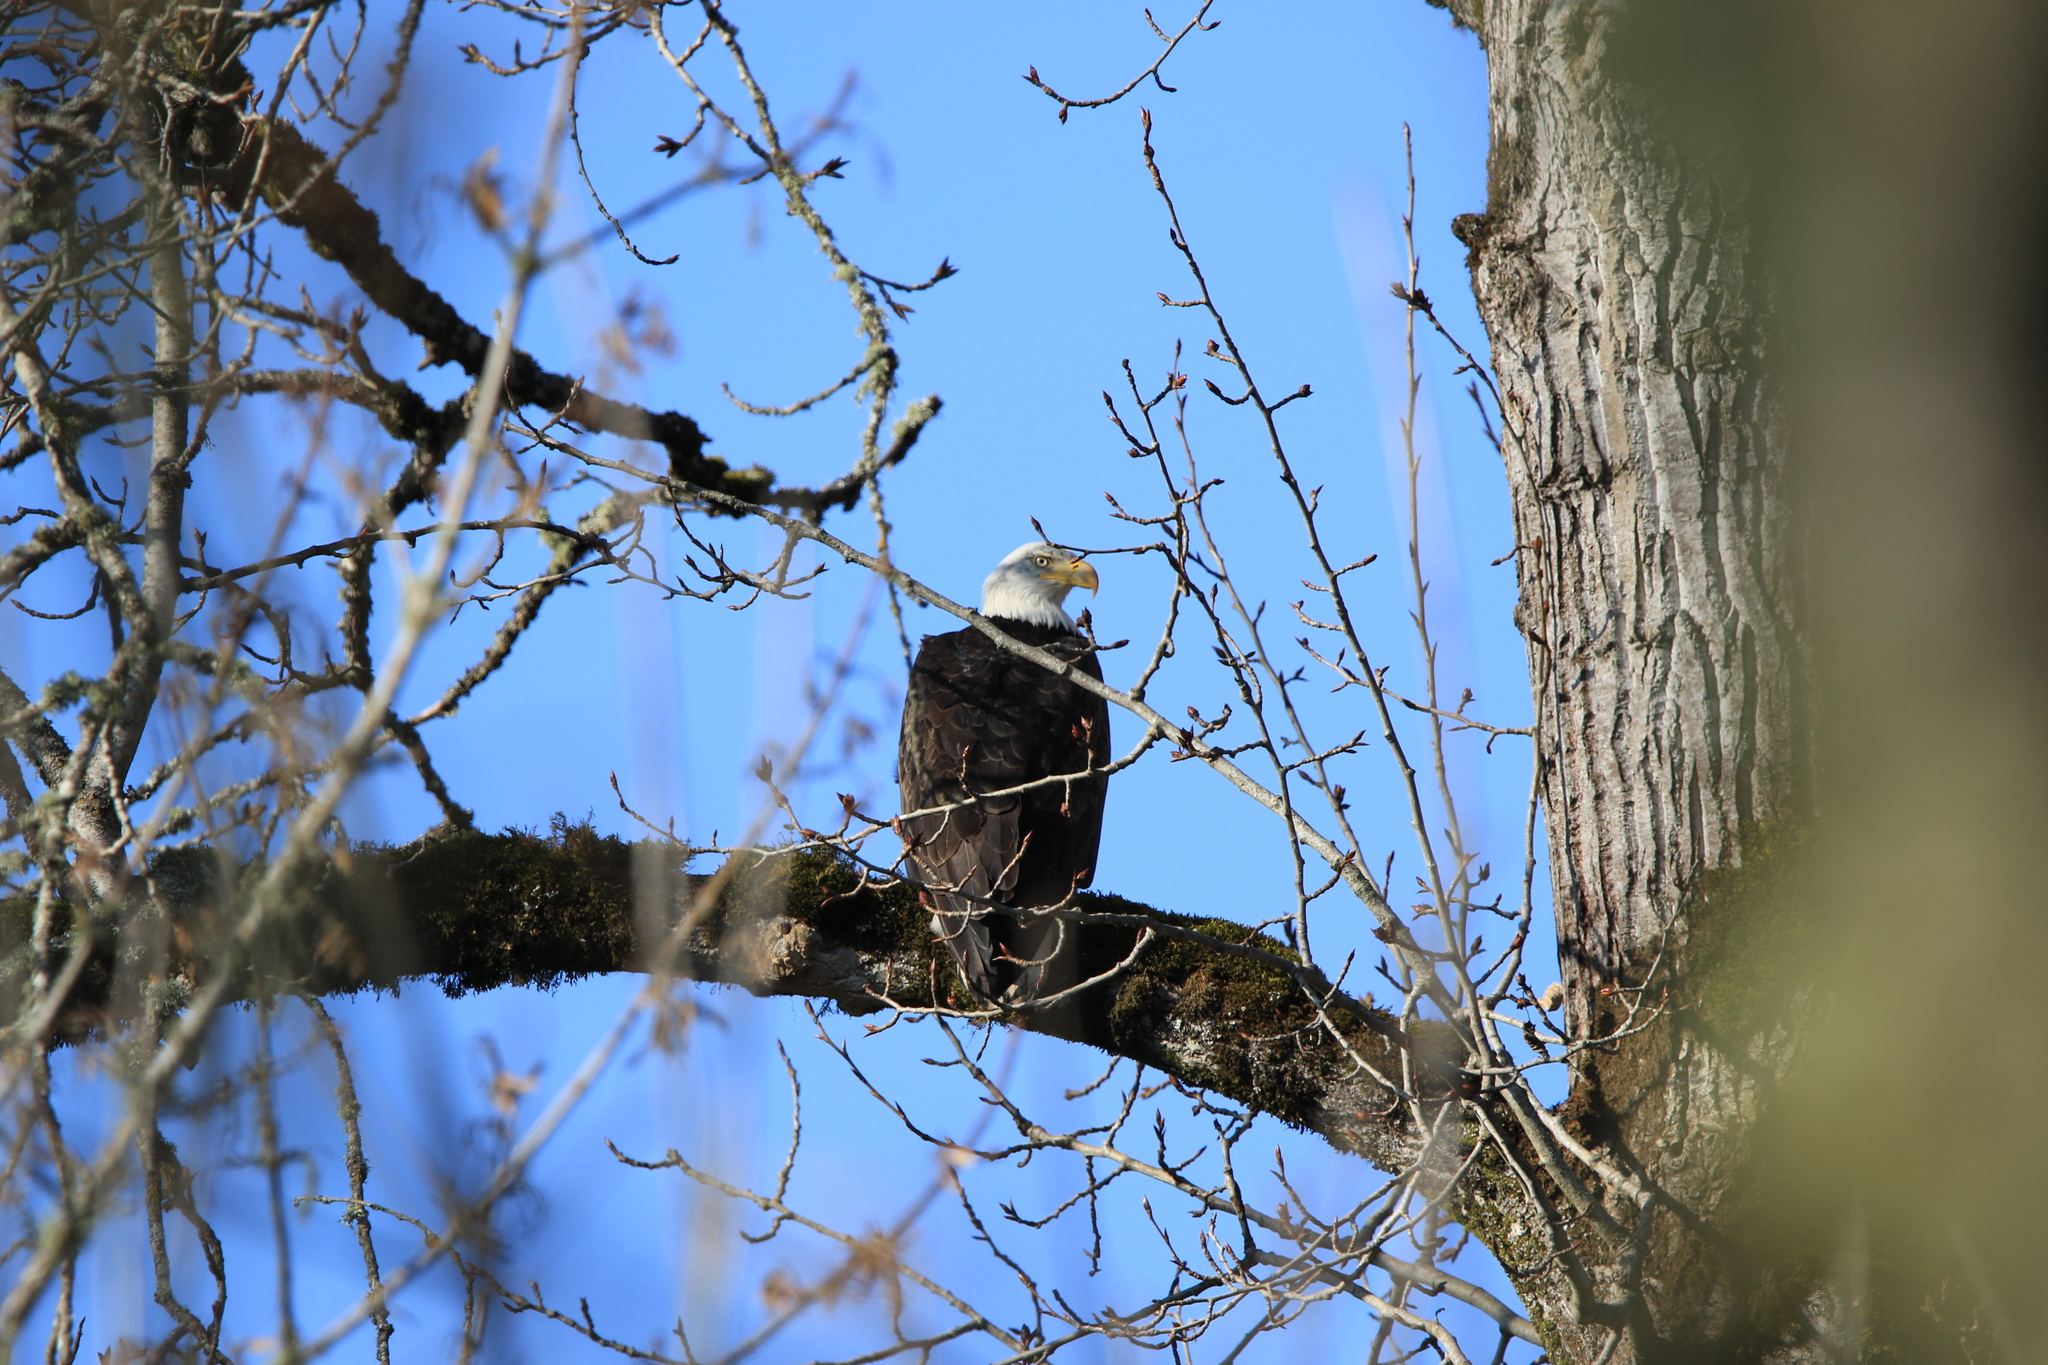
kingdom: Animalia
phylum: Chordata
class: Aves
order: Accipitriformes
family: Accipitridae
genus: Haliaeetus
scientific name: Haliaeetus leucocephalus
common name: Bald eagle
